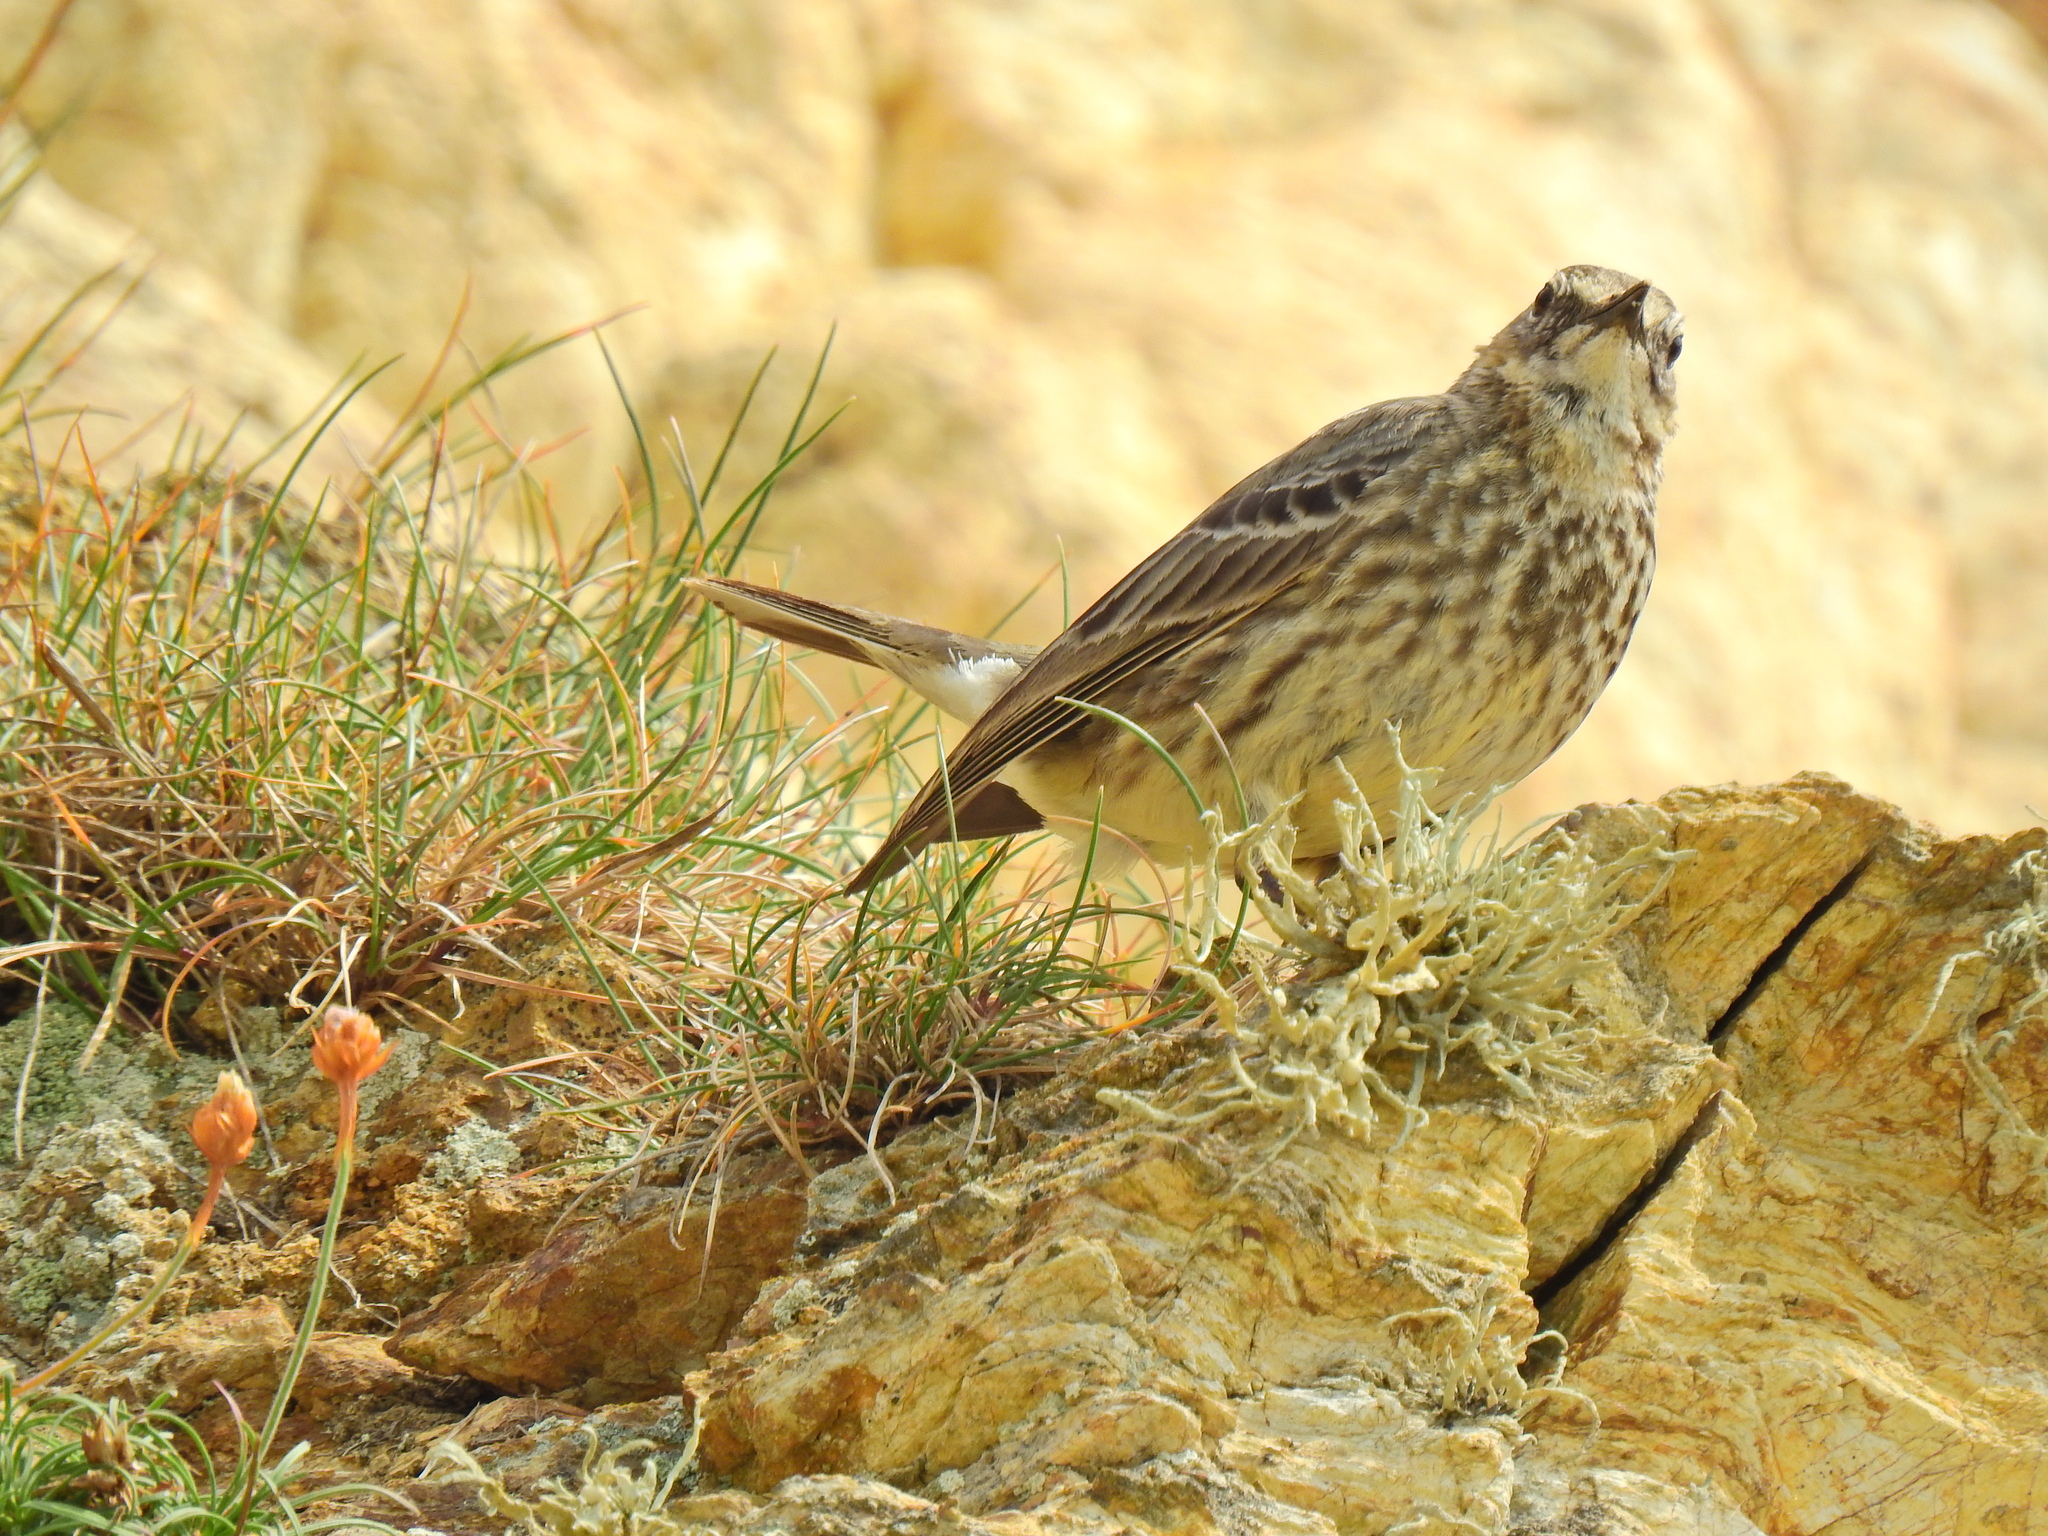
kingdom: Animalia
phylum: Chordata
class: Aves
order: Passeriformes
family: Motacillidae
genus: Anthus
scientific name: Anthus petrosus
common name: Eurasian rock pipit
